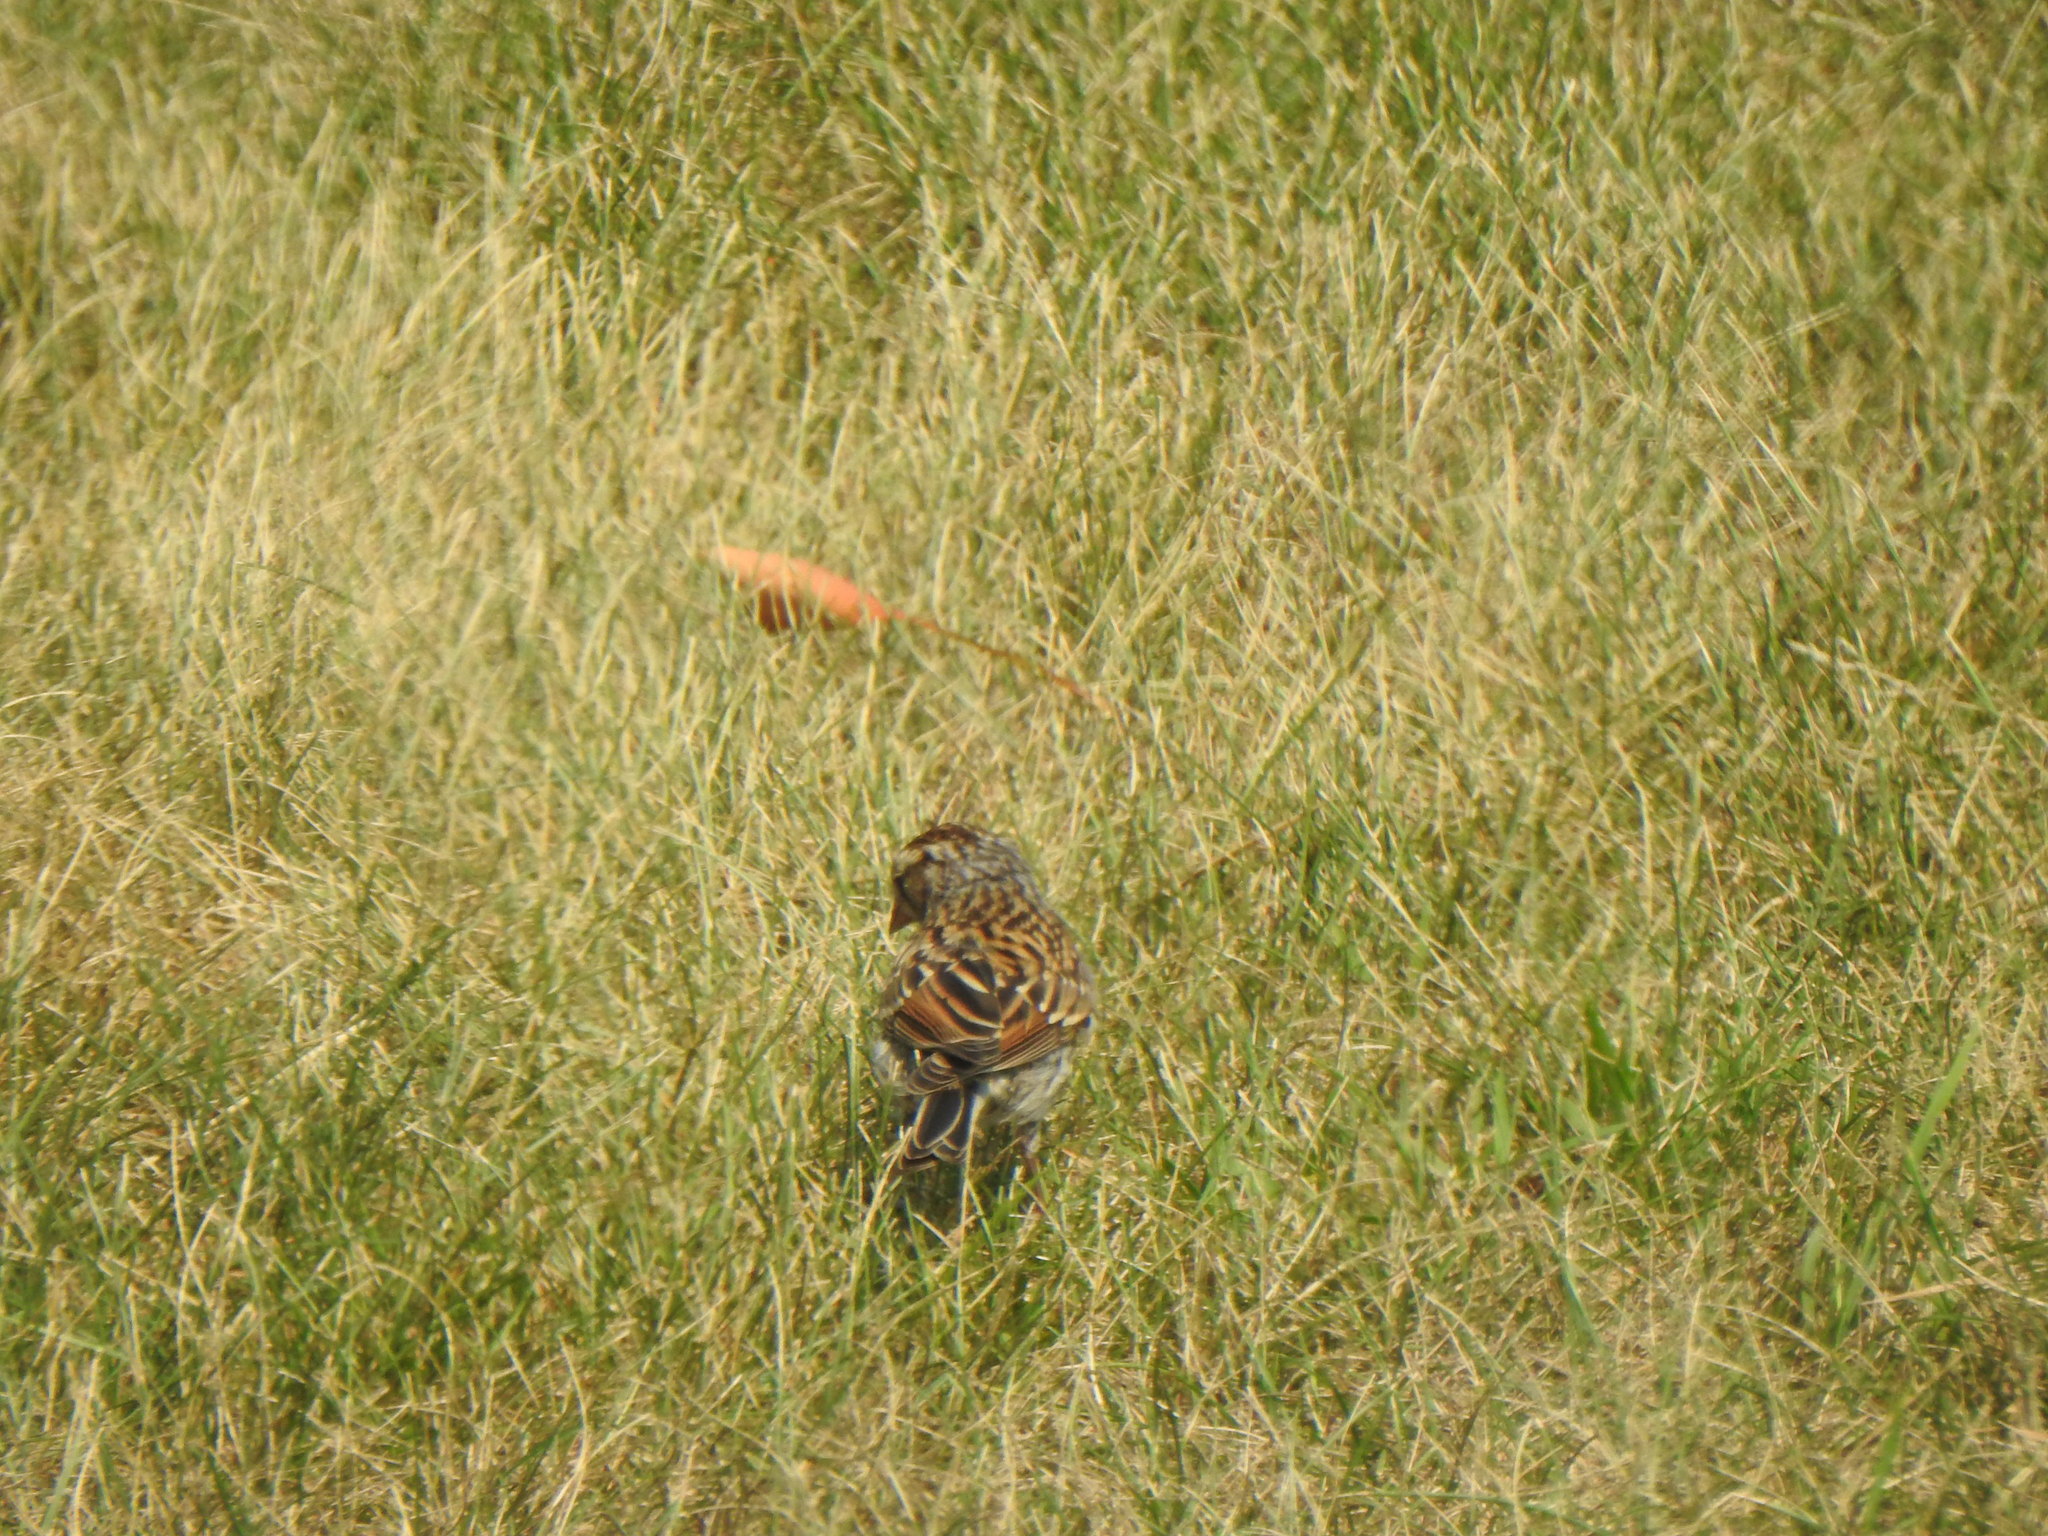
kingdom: Animalia
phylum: Chordata
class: Aves
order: Passeriformes
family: Passerellidae
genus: Spizella
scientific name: Spizella passerina
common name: Chipping sparrow
